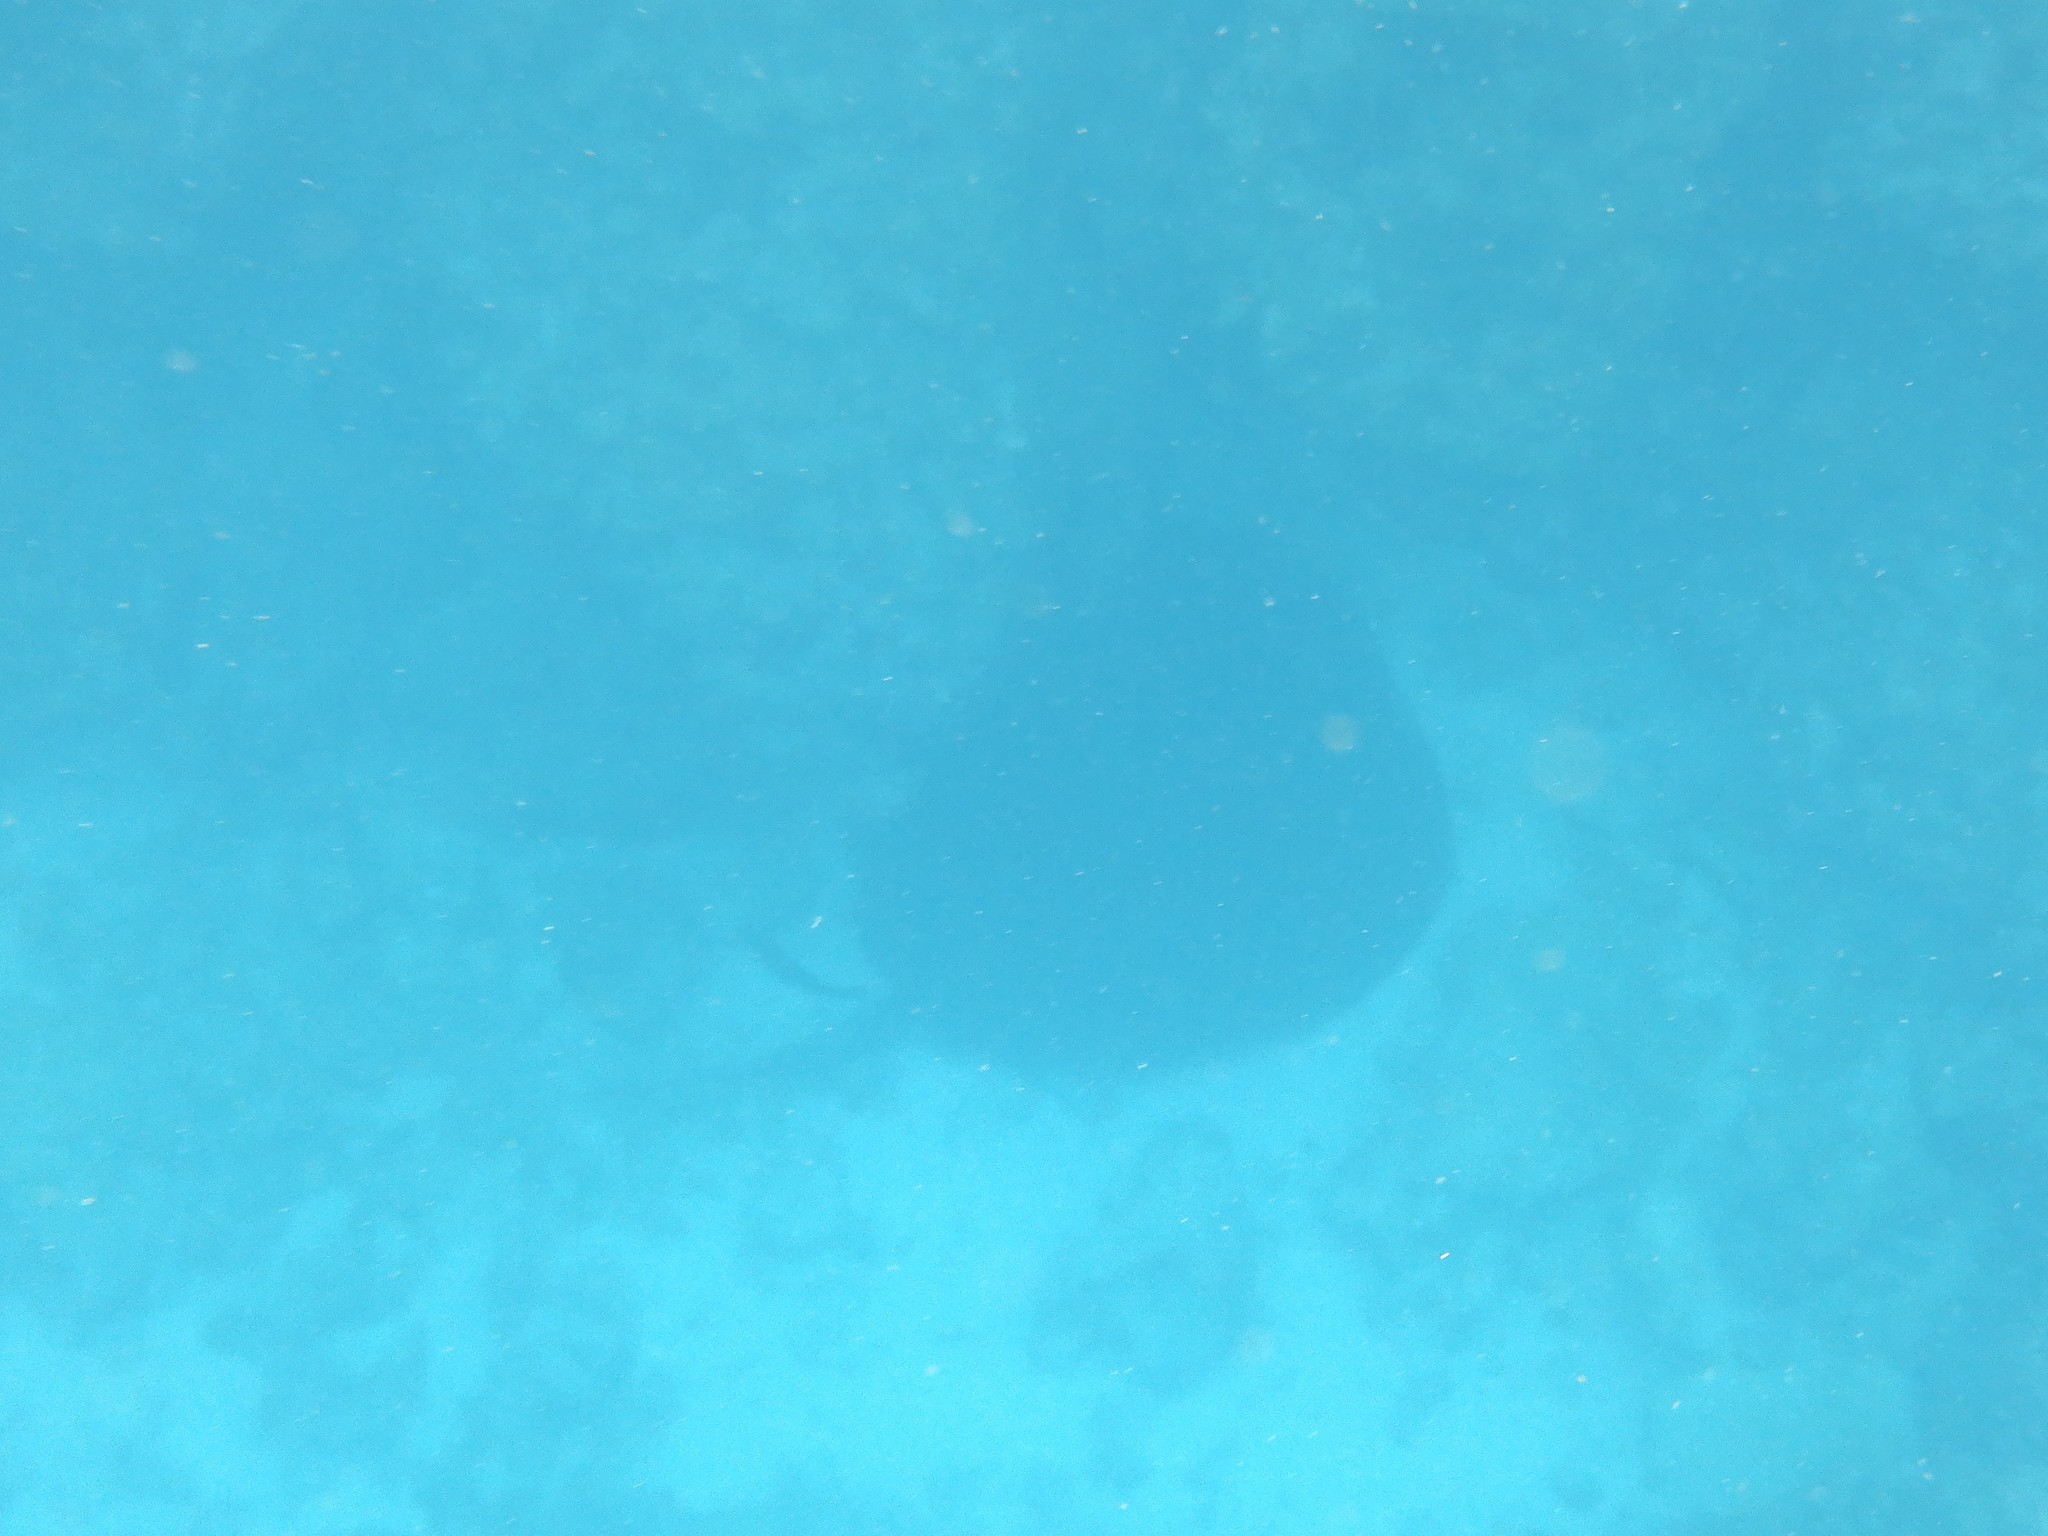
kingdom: Animalia
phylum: Chordata
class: Elasmobranchii
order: Myliobatiformes
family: Dasyatidae
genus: Taeniurops
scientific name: Taeniurops meyeni
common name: Black-blotched stingray
